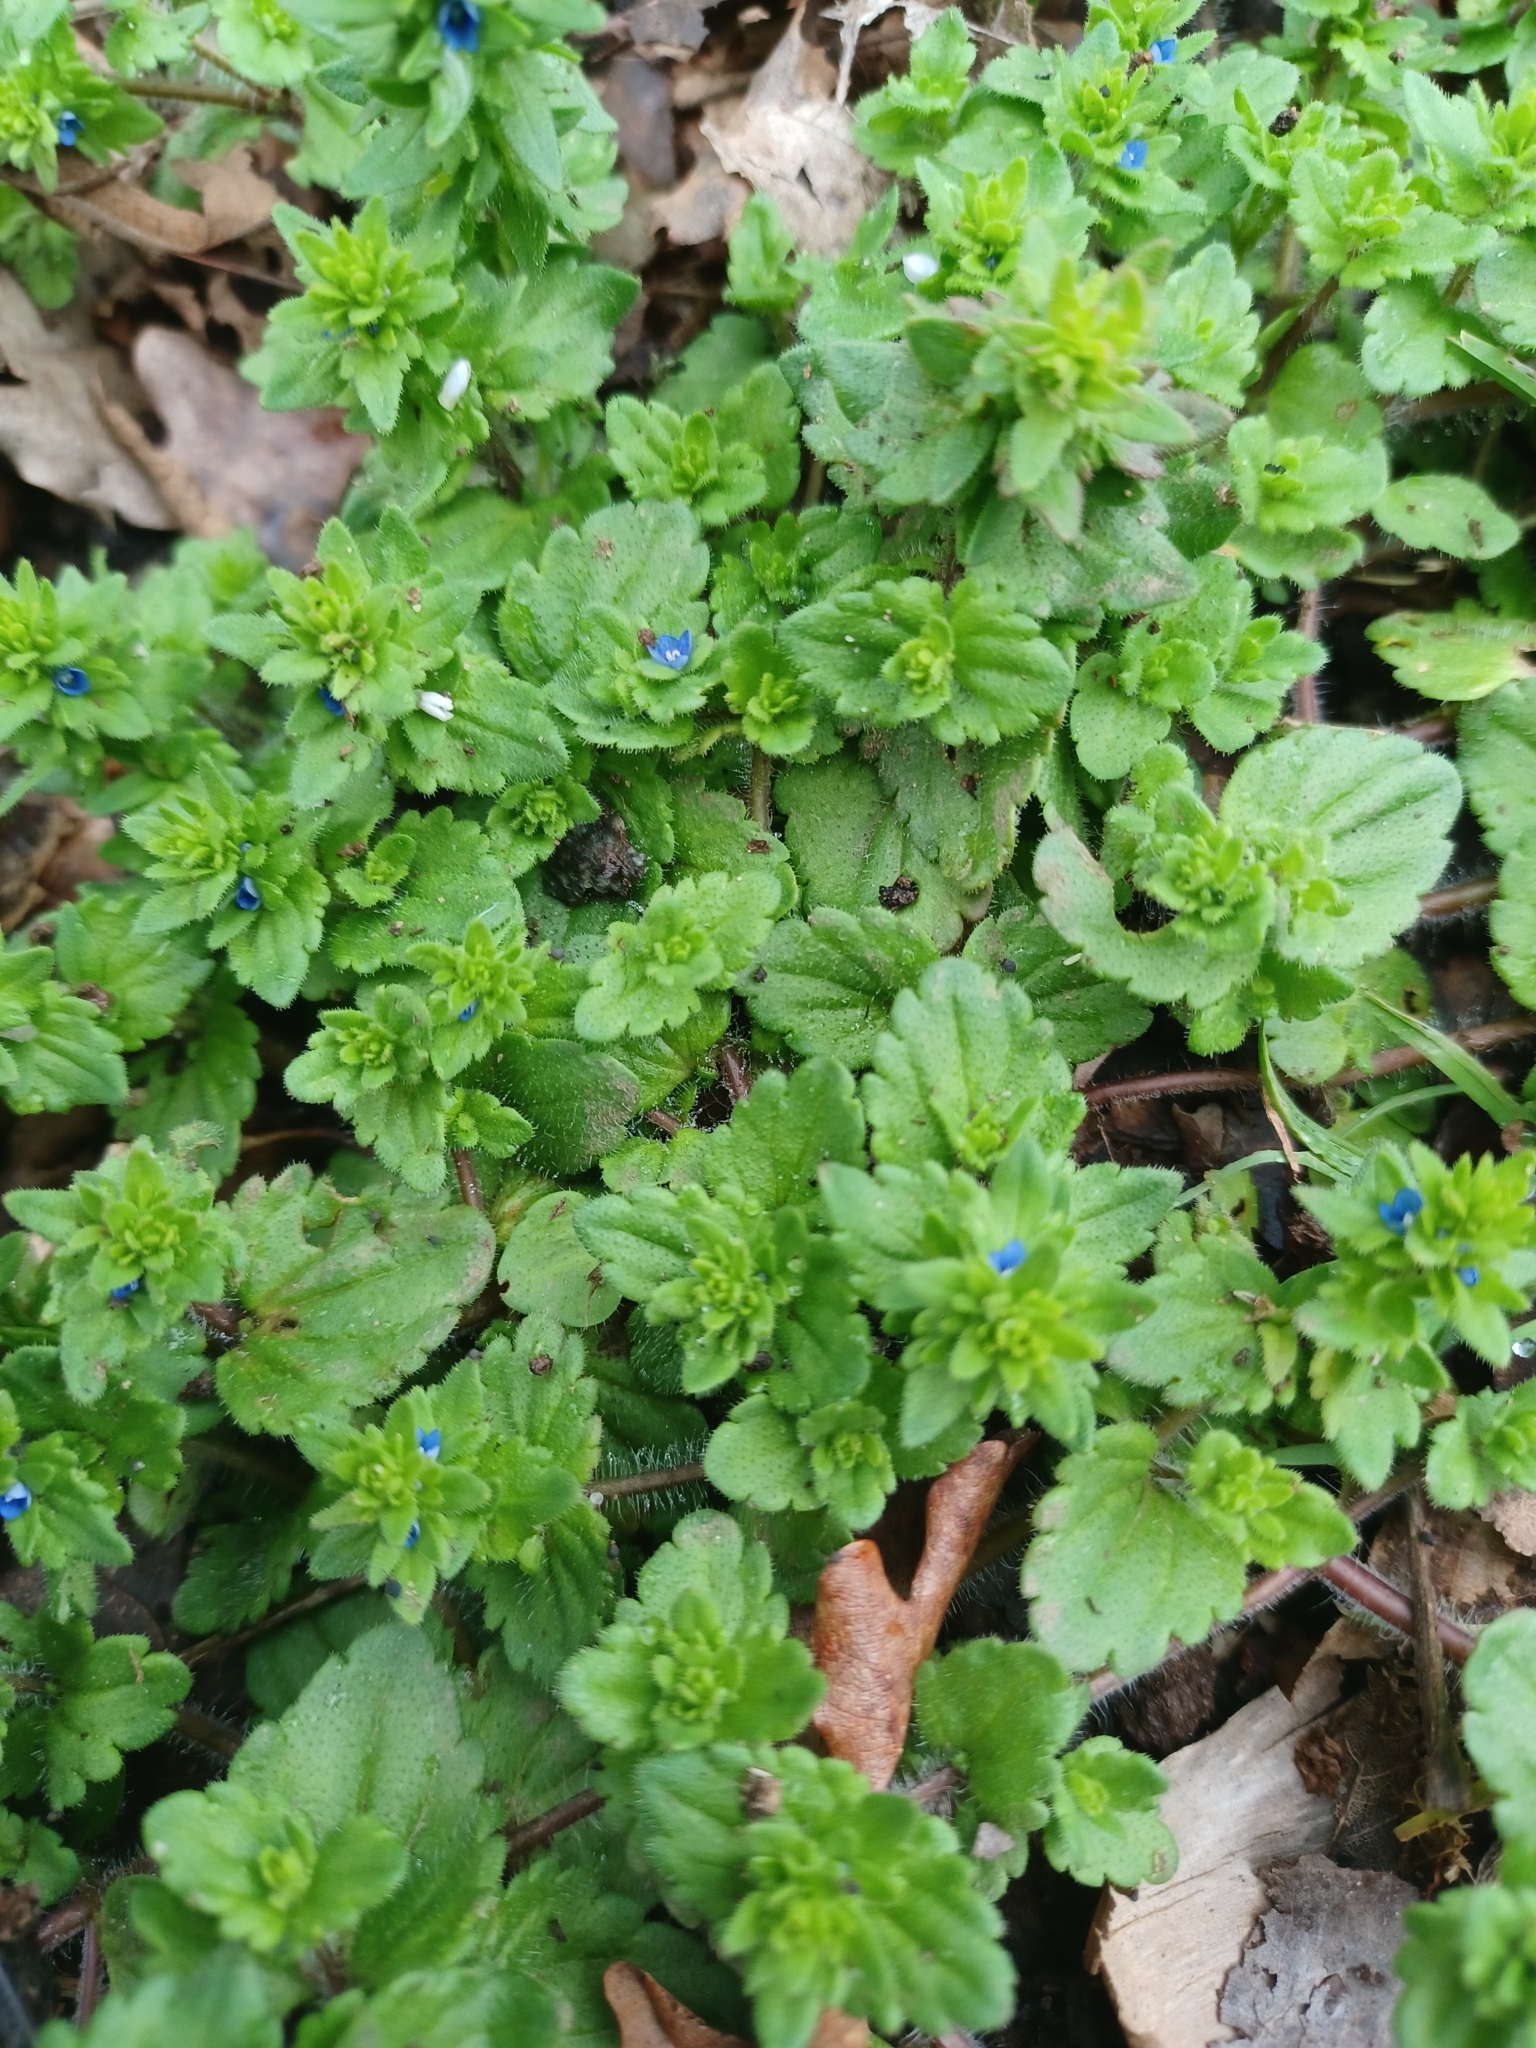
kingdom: Plantae
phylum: Tracheophyta
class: Magnoliopsida
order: Lamiales
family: Plantaginaceae
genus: Veronica
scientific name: Veronica arvensis
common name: Corn speedwell
